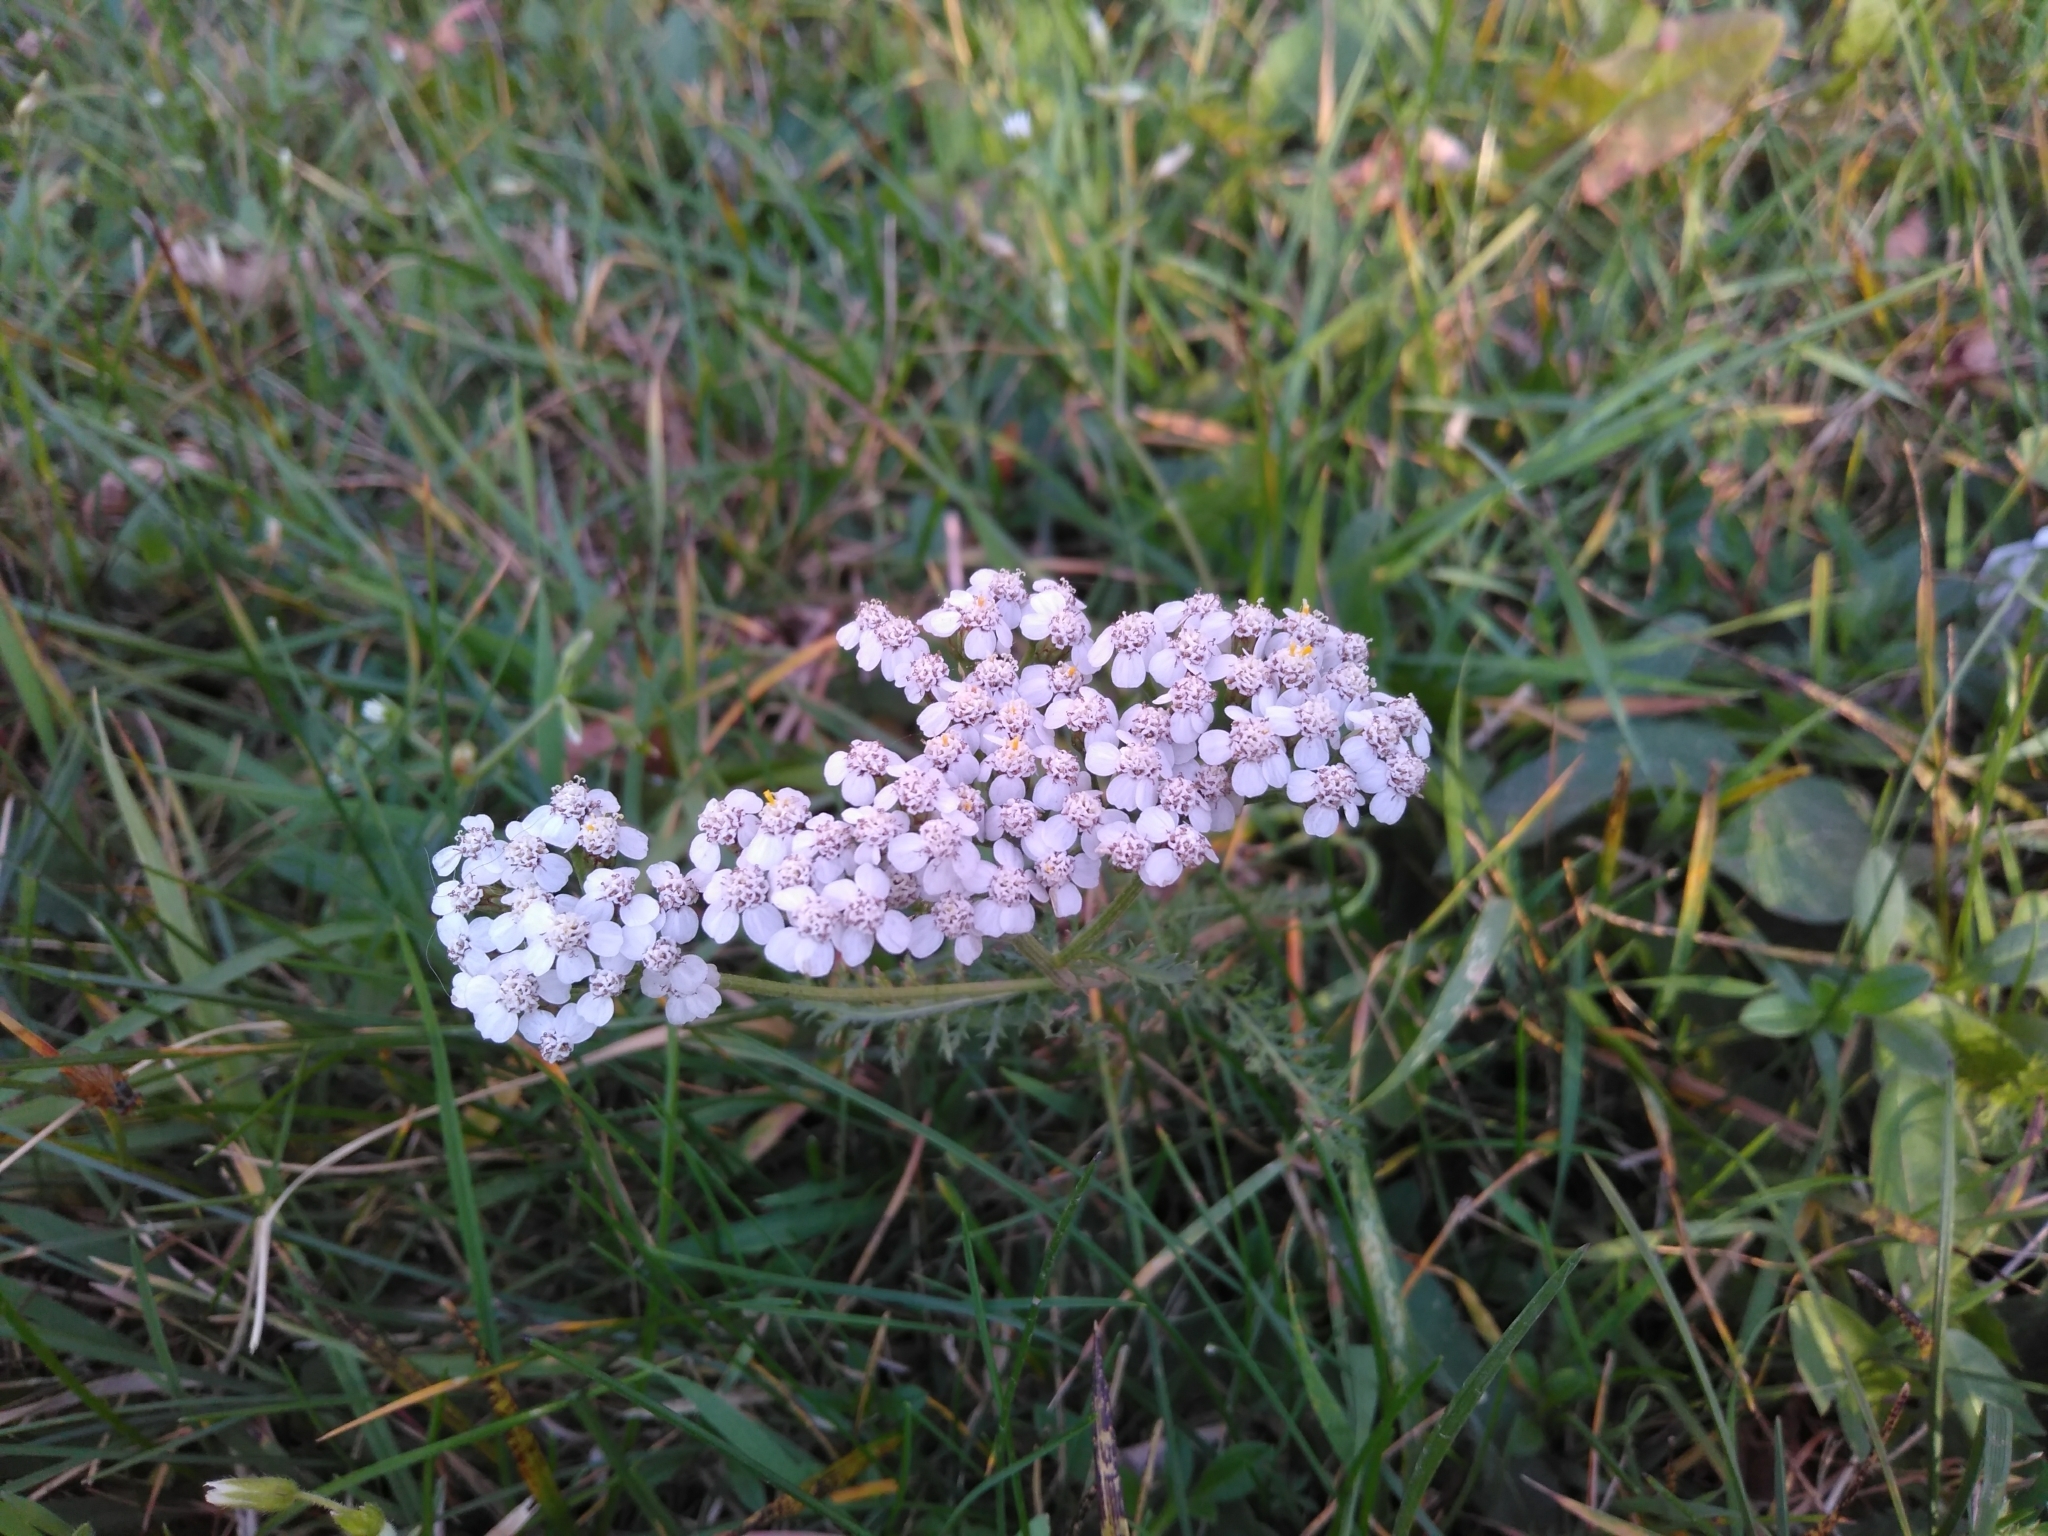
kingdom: Plantae
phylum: Tracheophyta
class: Magnoliopsida
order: Asterales
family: Asteraceae
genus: Achillea
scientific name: Achillea millefolium
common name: Yarrow
